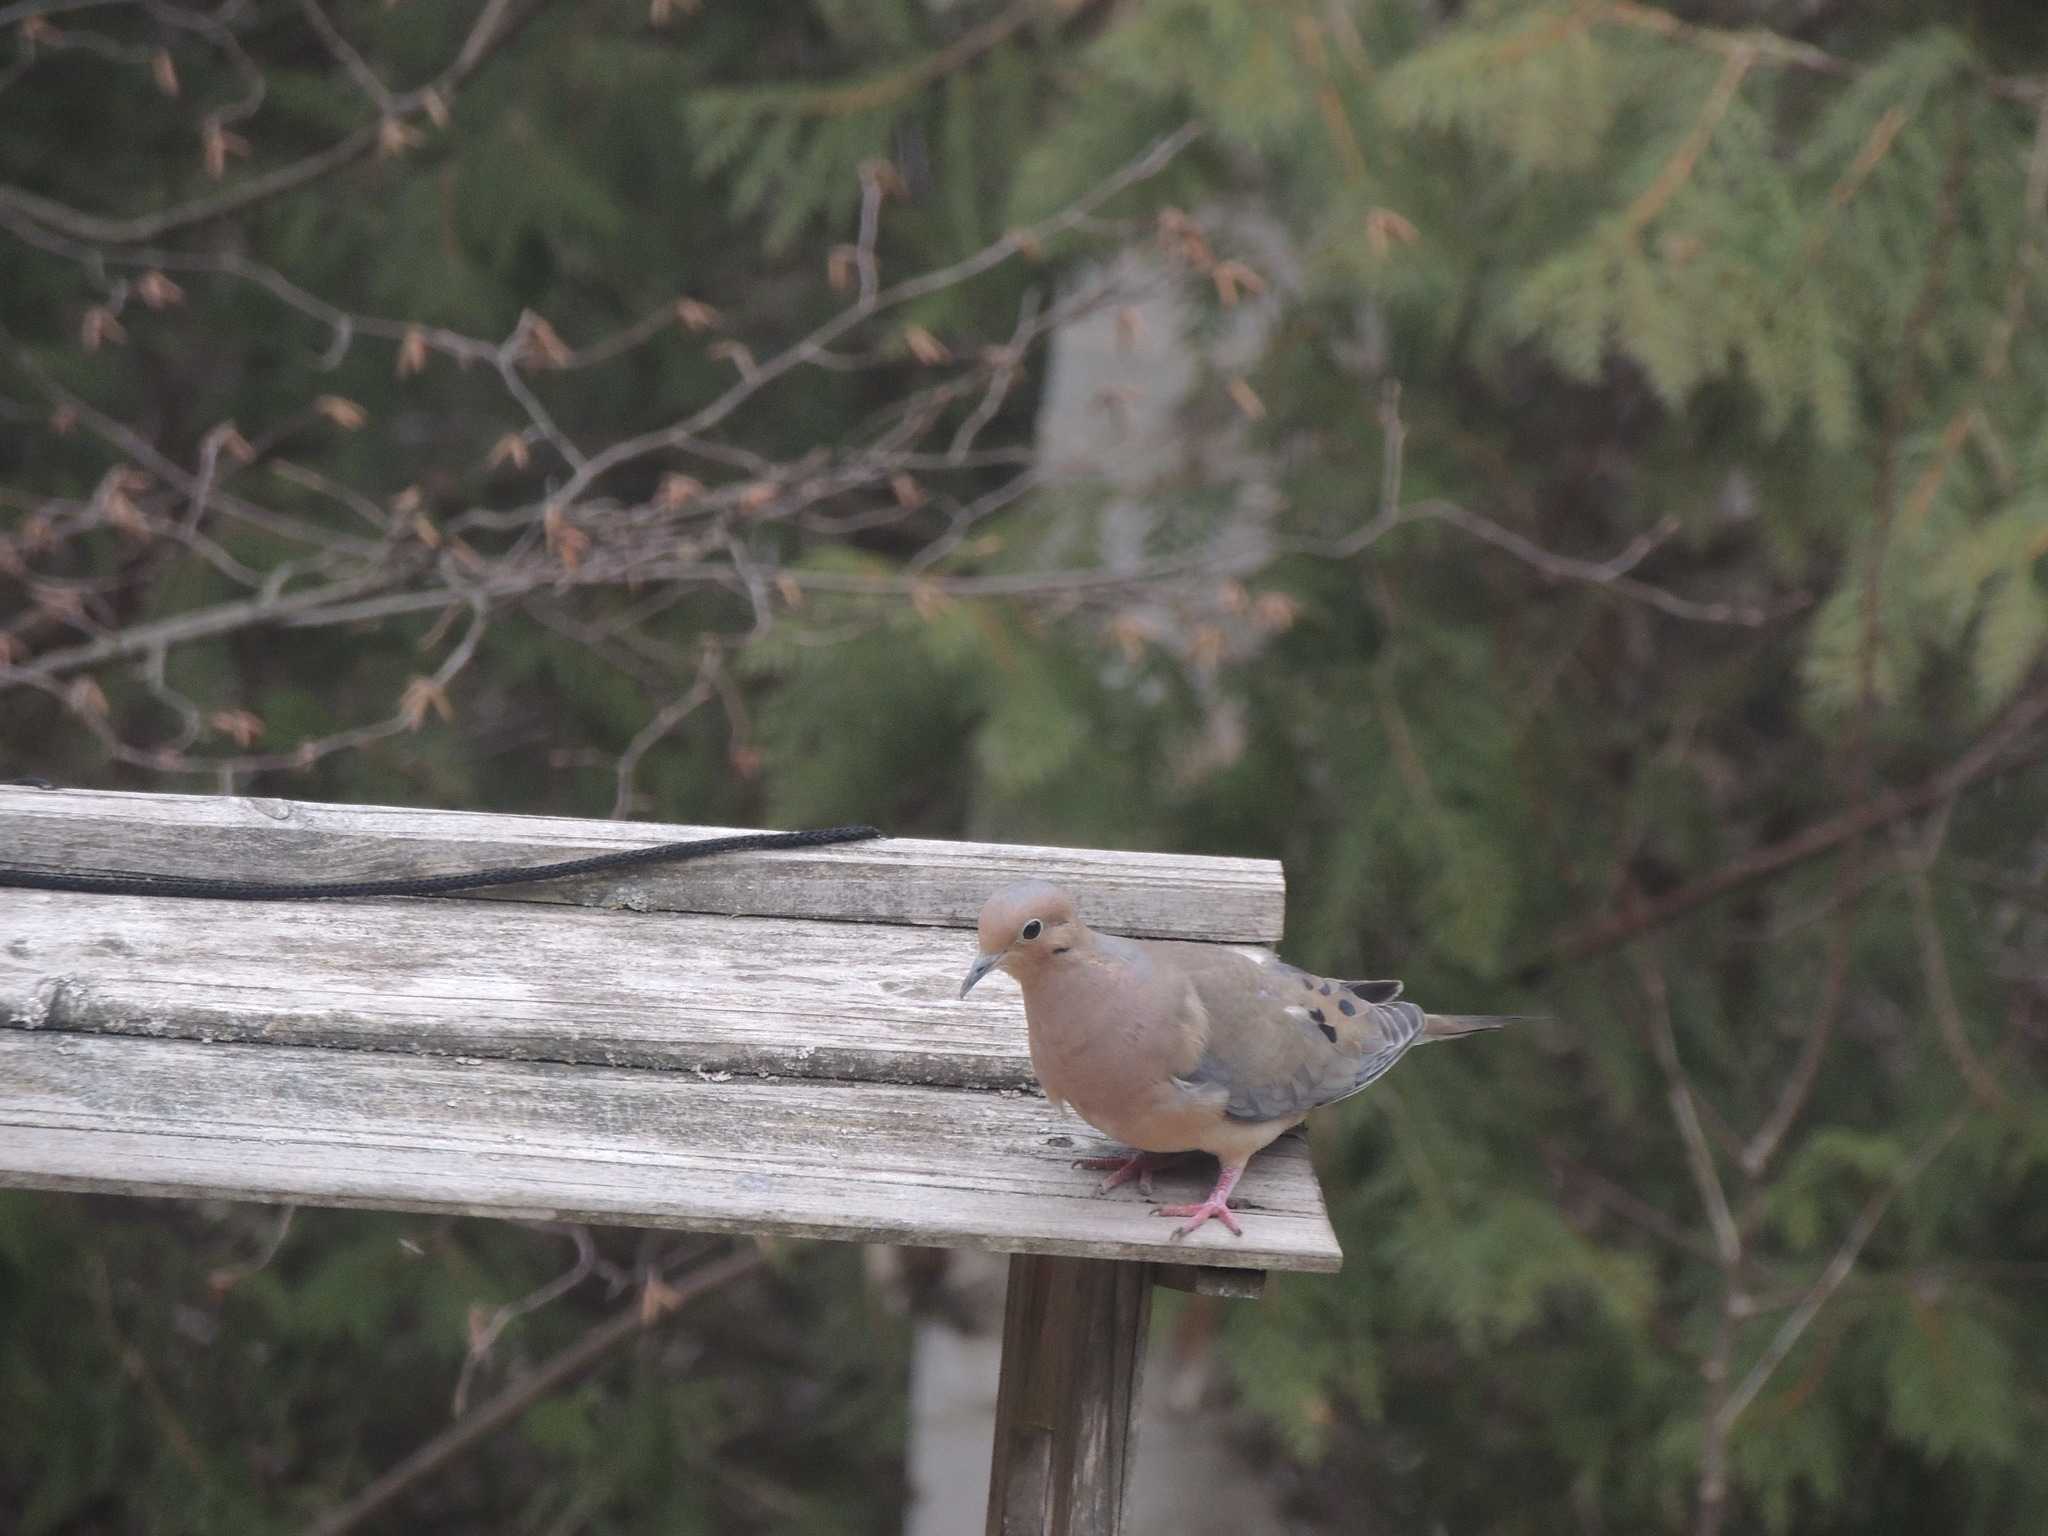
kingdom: Animalia
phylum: Chordata
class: Aves
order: Columbiformes
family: Columbidae
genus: Zenaida
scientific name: Zenaida macroura
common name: Mourning dove
